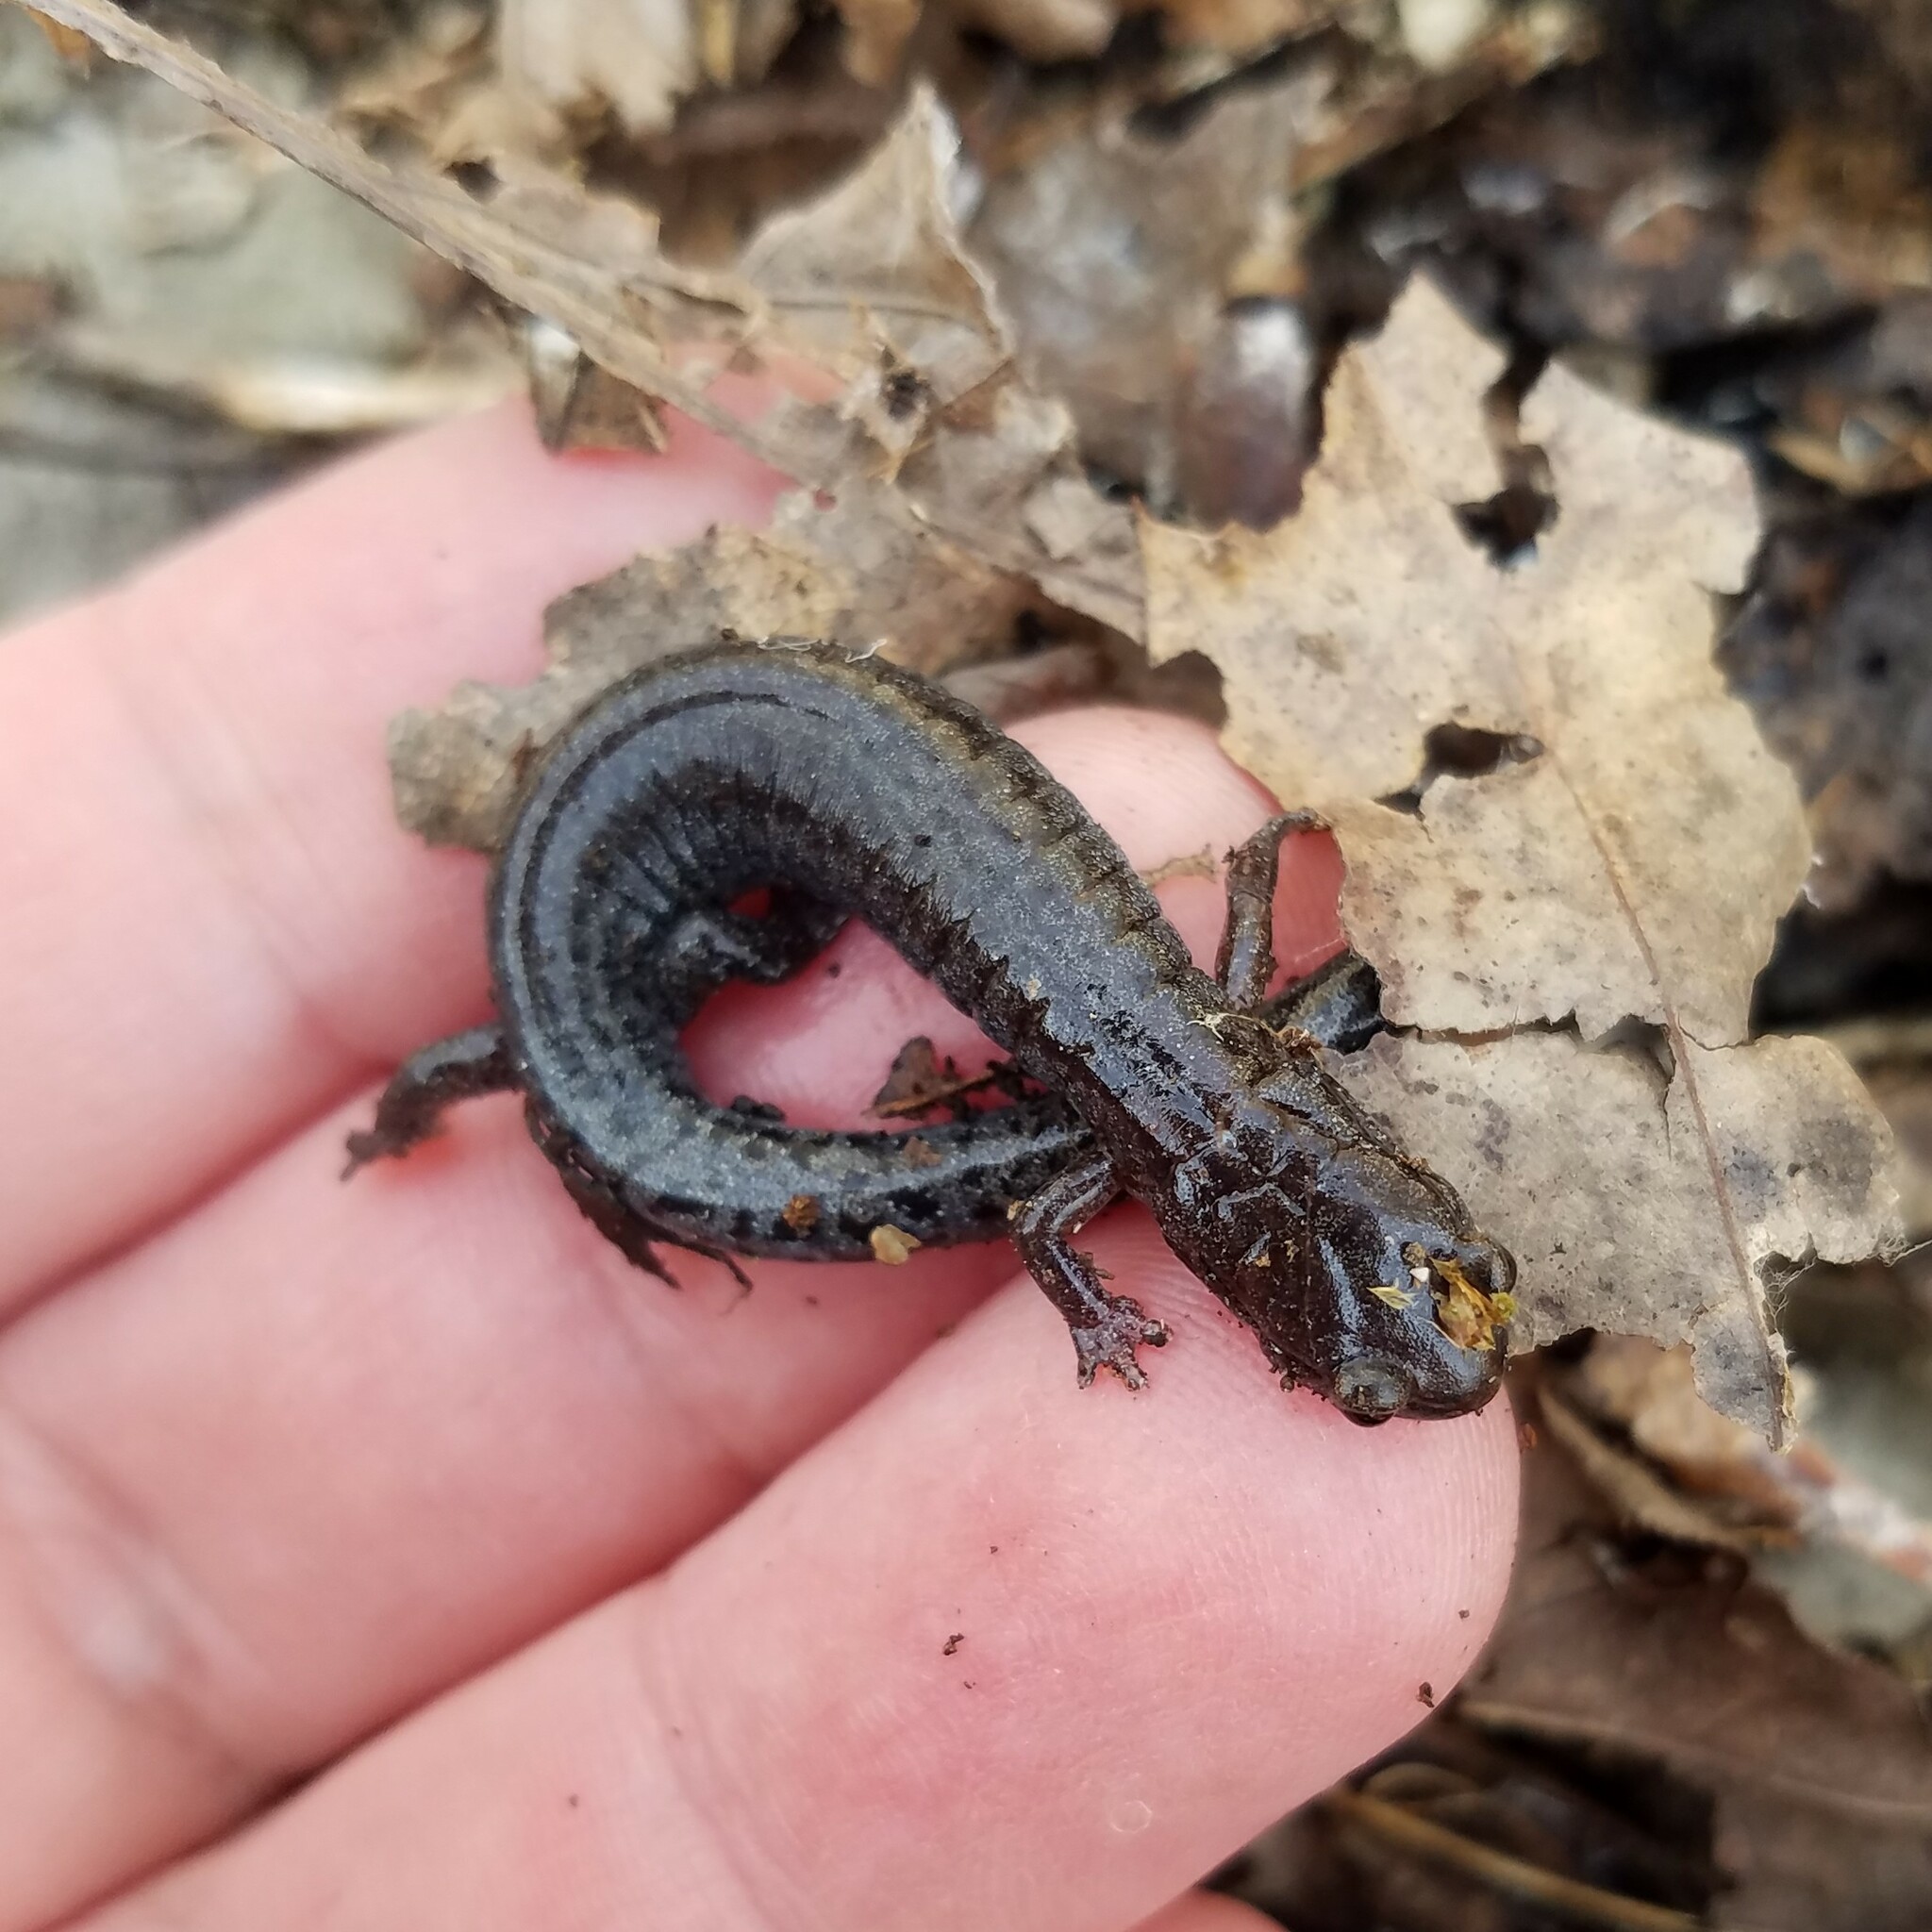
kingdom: Animalia
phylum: Chordata
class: Amphibia
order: Caudata
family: Plethodontidae
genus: Plethodon
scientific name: Plethodon ventralis
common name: Southern zigzag salamander
